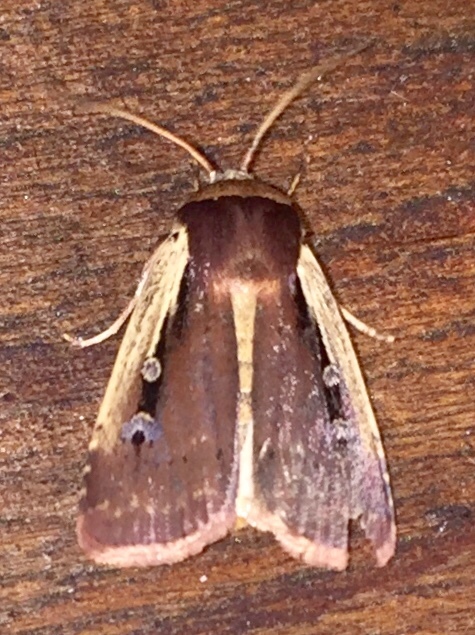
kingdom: Animalia
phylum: Arthropoda
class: Insecta
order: Lepidoptera
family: Noctuidae
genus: Ochropleura
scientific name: Ochropleura implecta
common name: Flame-shouldered dart
